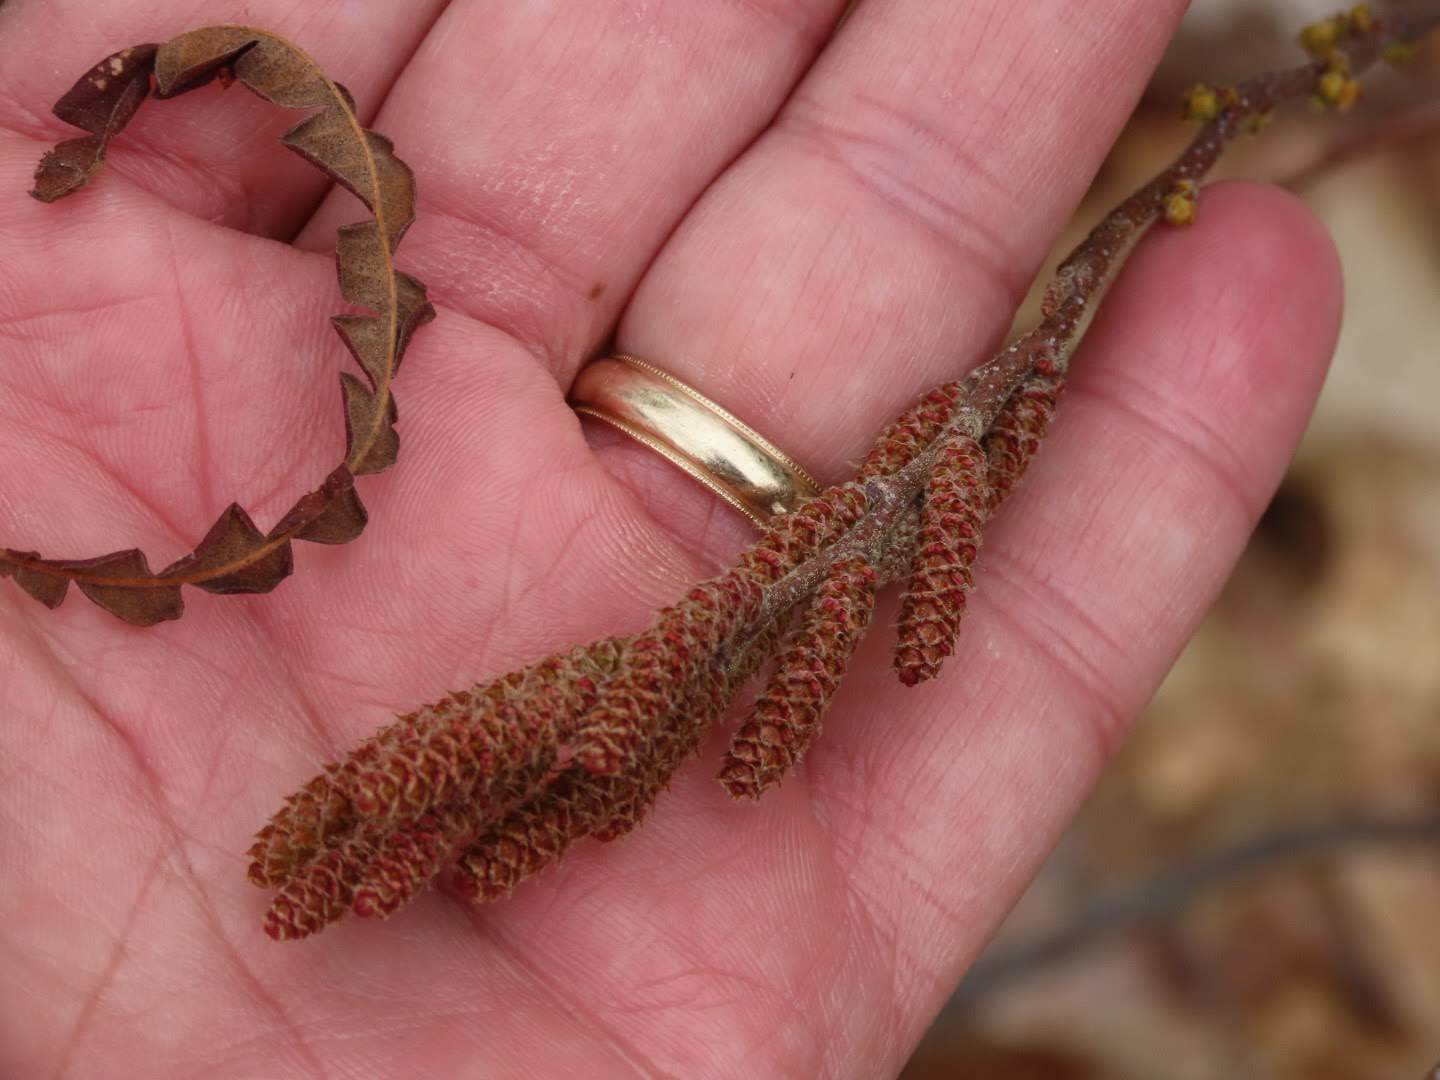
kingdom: Plantae
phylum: Tracheophyta
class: Magnoliopsida
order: Fagales
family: Myricaceae
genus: Comptonia
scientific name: Comptonia peregrina
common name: Sweet-fern
